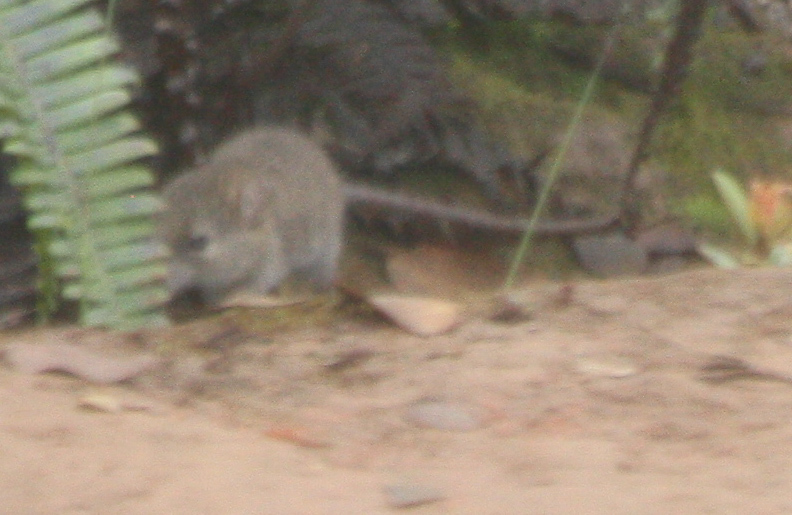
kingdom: Animalia
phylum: Chordata
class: Mammalia
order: Rodentia
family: Muridae
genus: Mus
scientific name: Mus musculus
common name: House mouse
